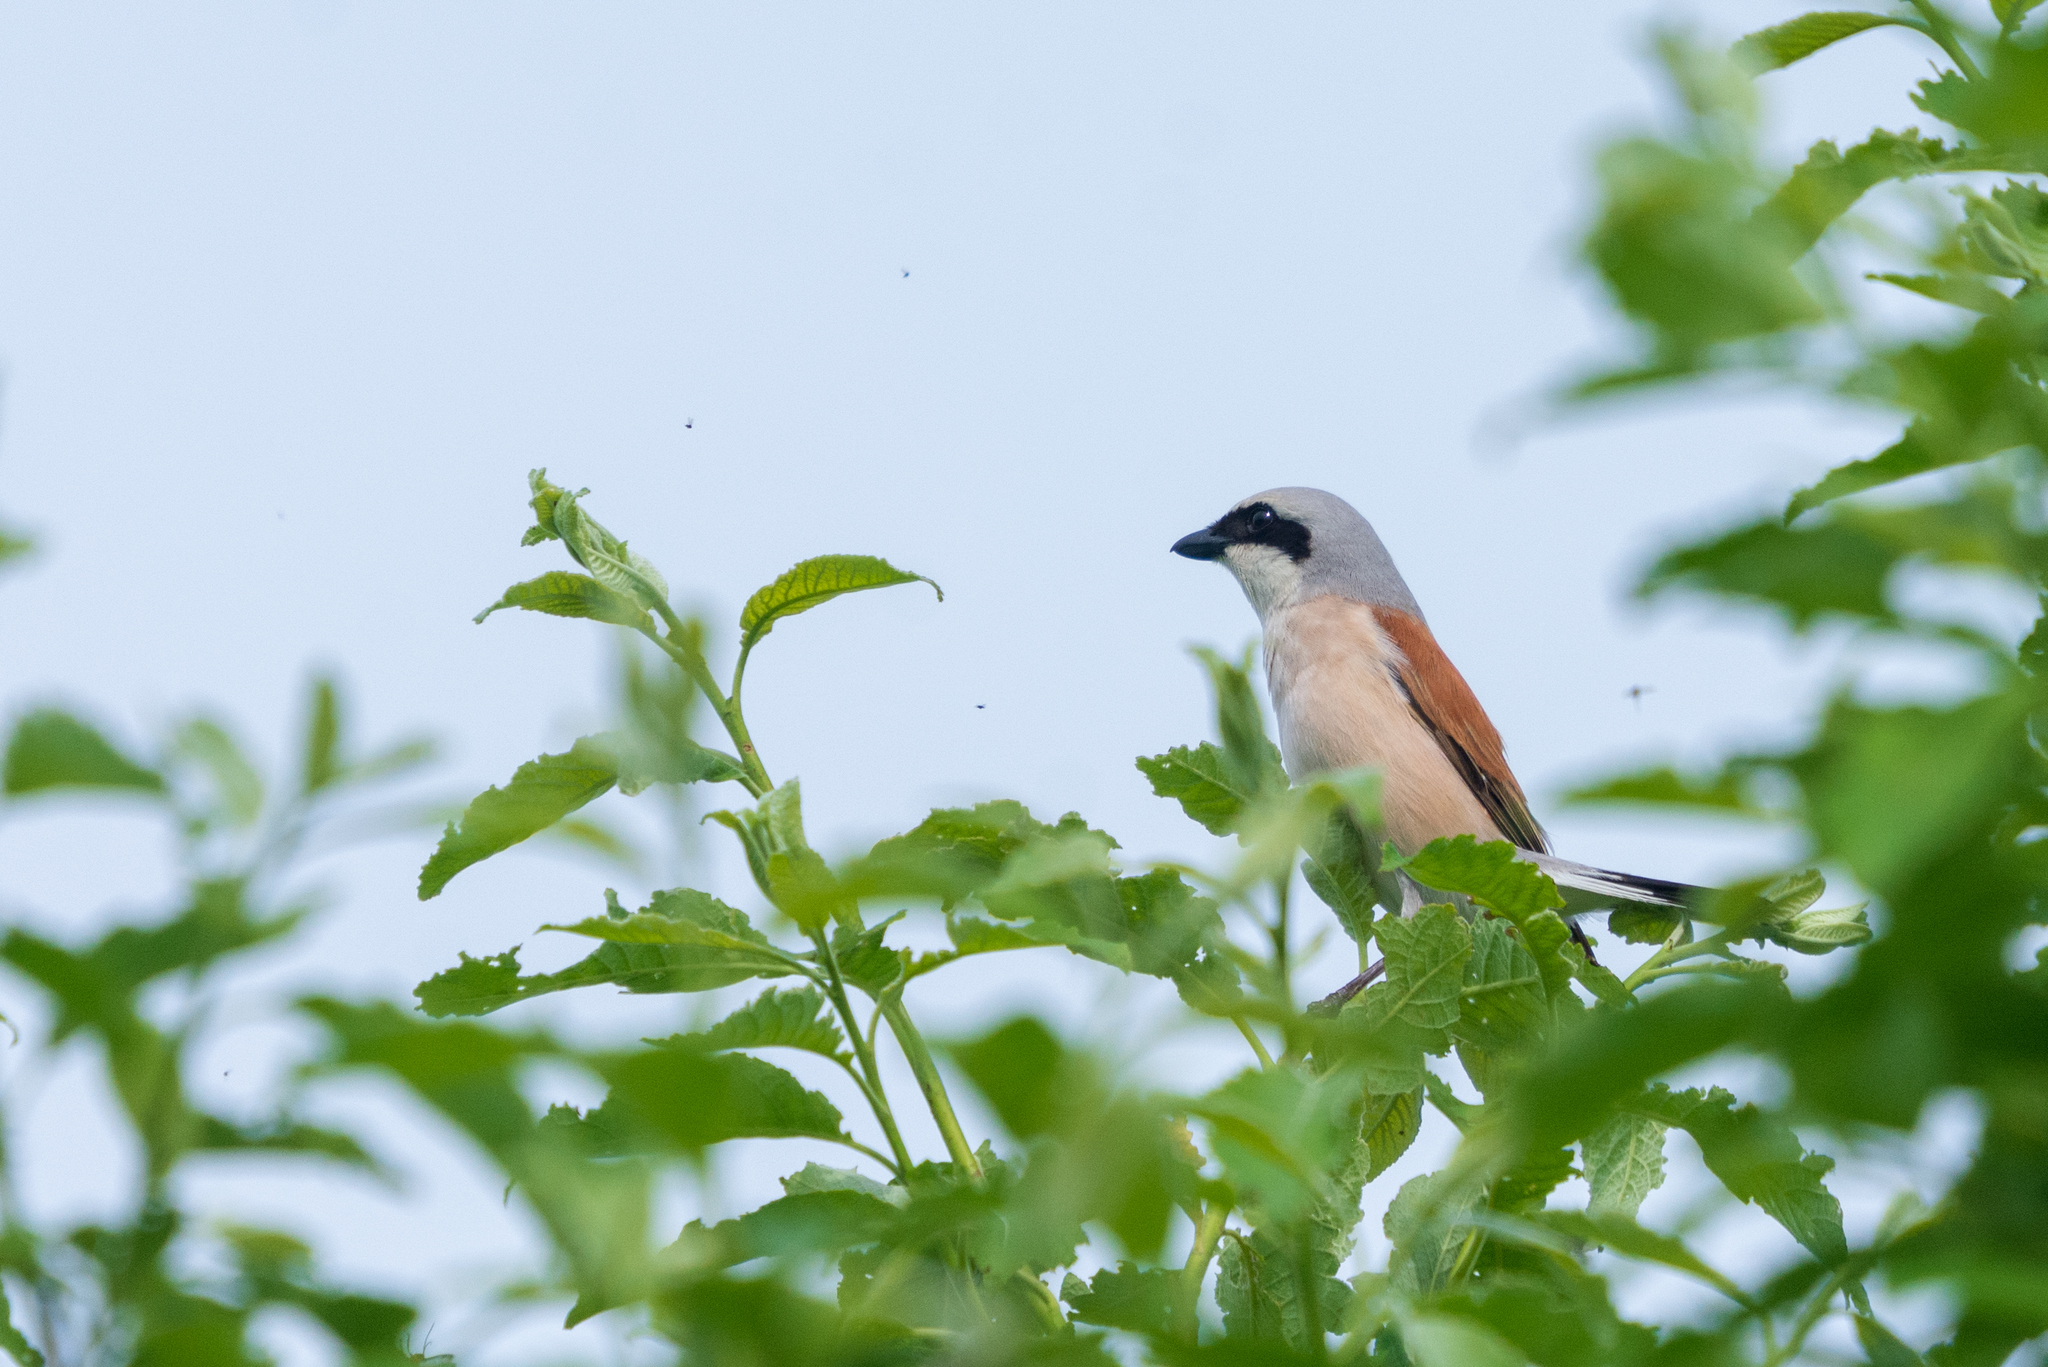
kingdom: Animalia
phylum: Chordata
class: Aves
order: Passeriformes
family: Laniidae
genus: Lanius
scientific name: Lanius collurio
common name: Red-backed shrike
